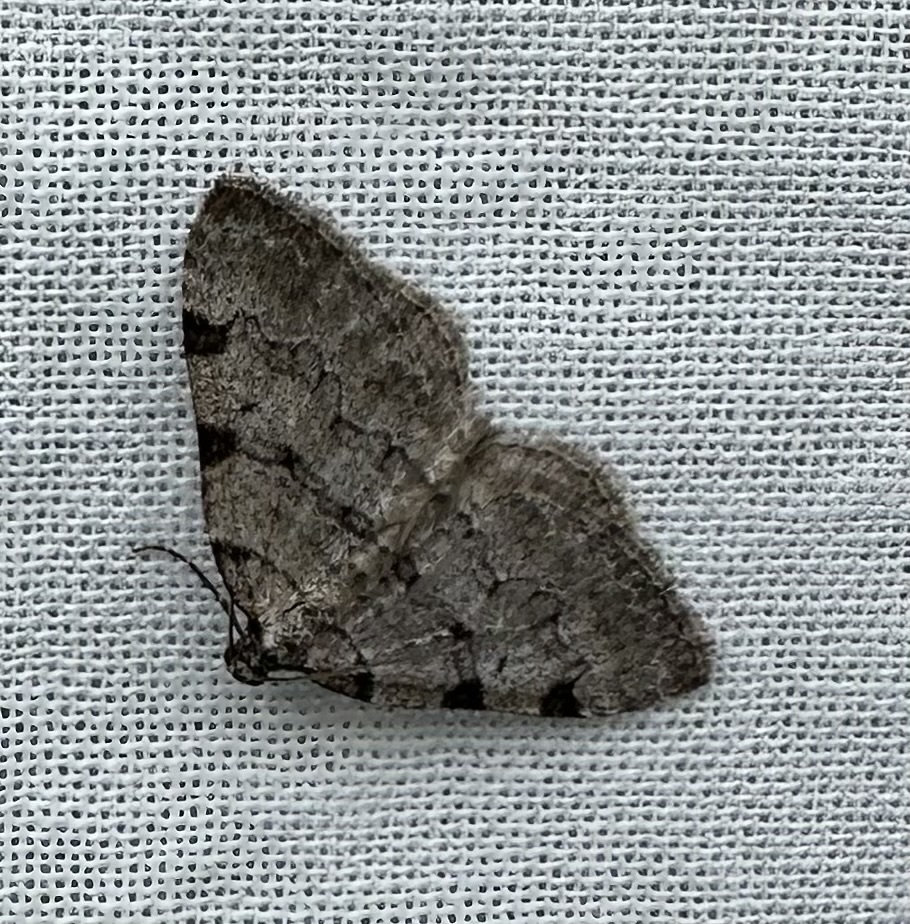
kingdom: Animalia
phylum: Arthropoda
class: Insecta
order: Lepidoptera
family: Geometridae
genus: Perizoma
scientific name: Perizoma costiguttata
